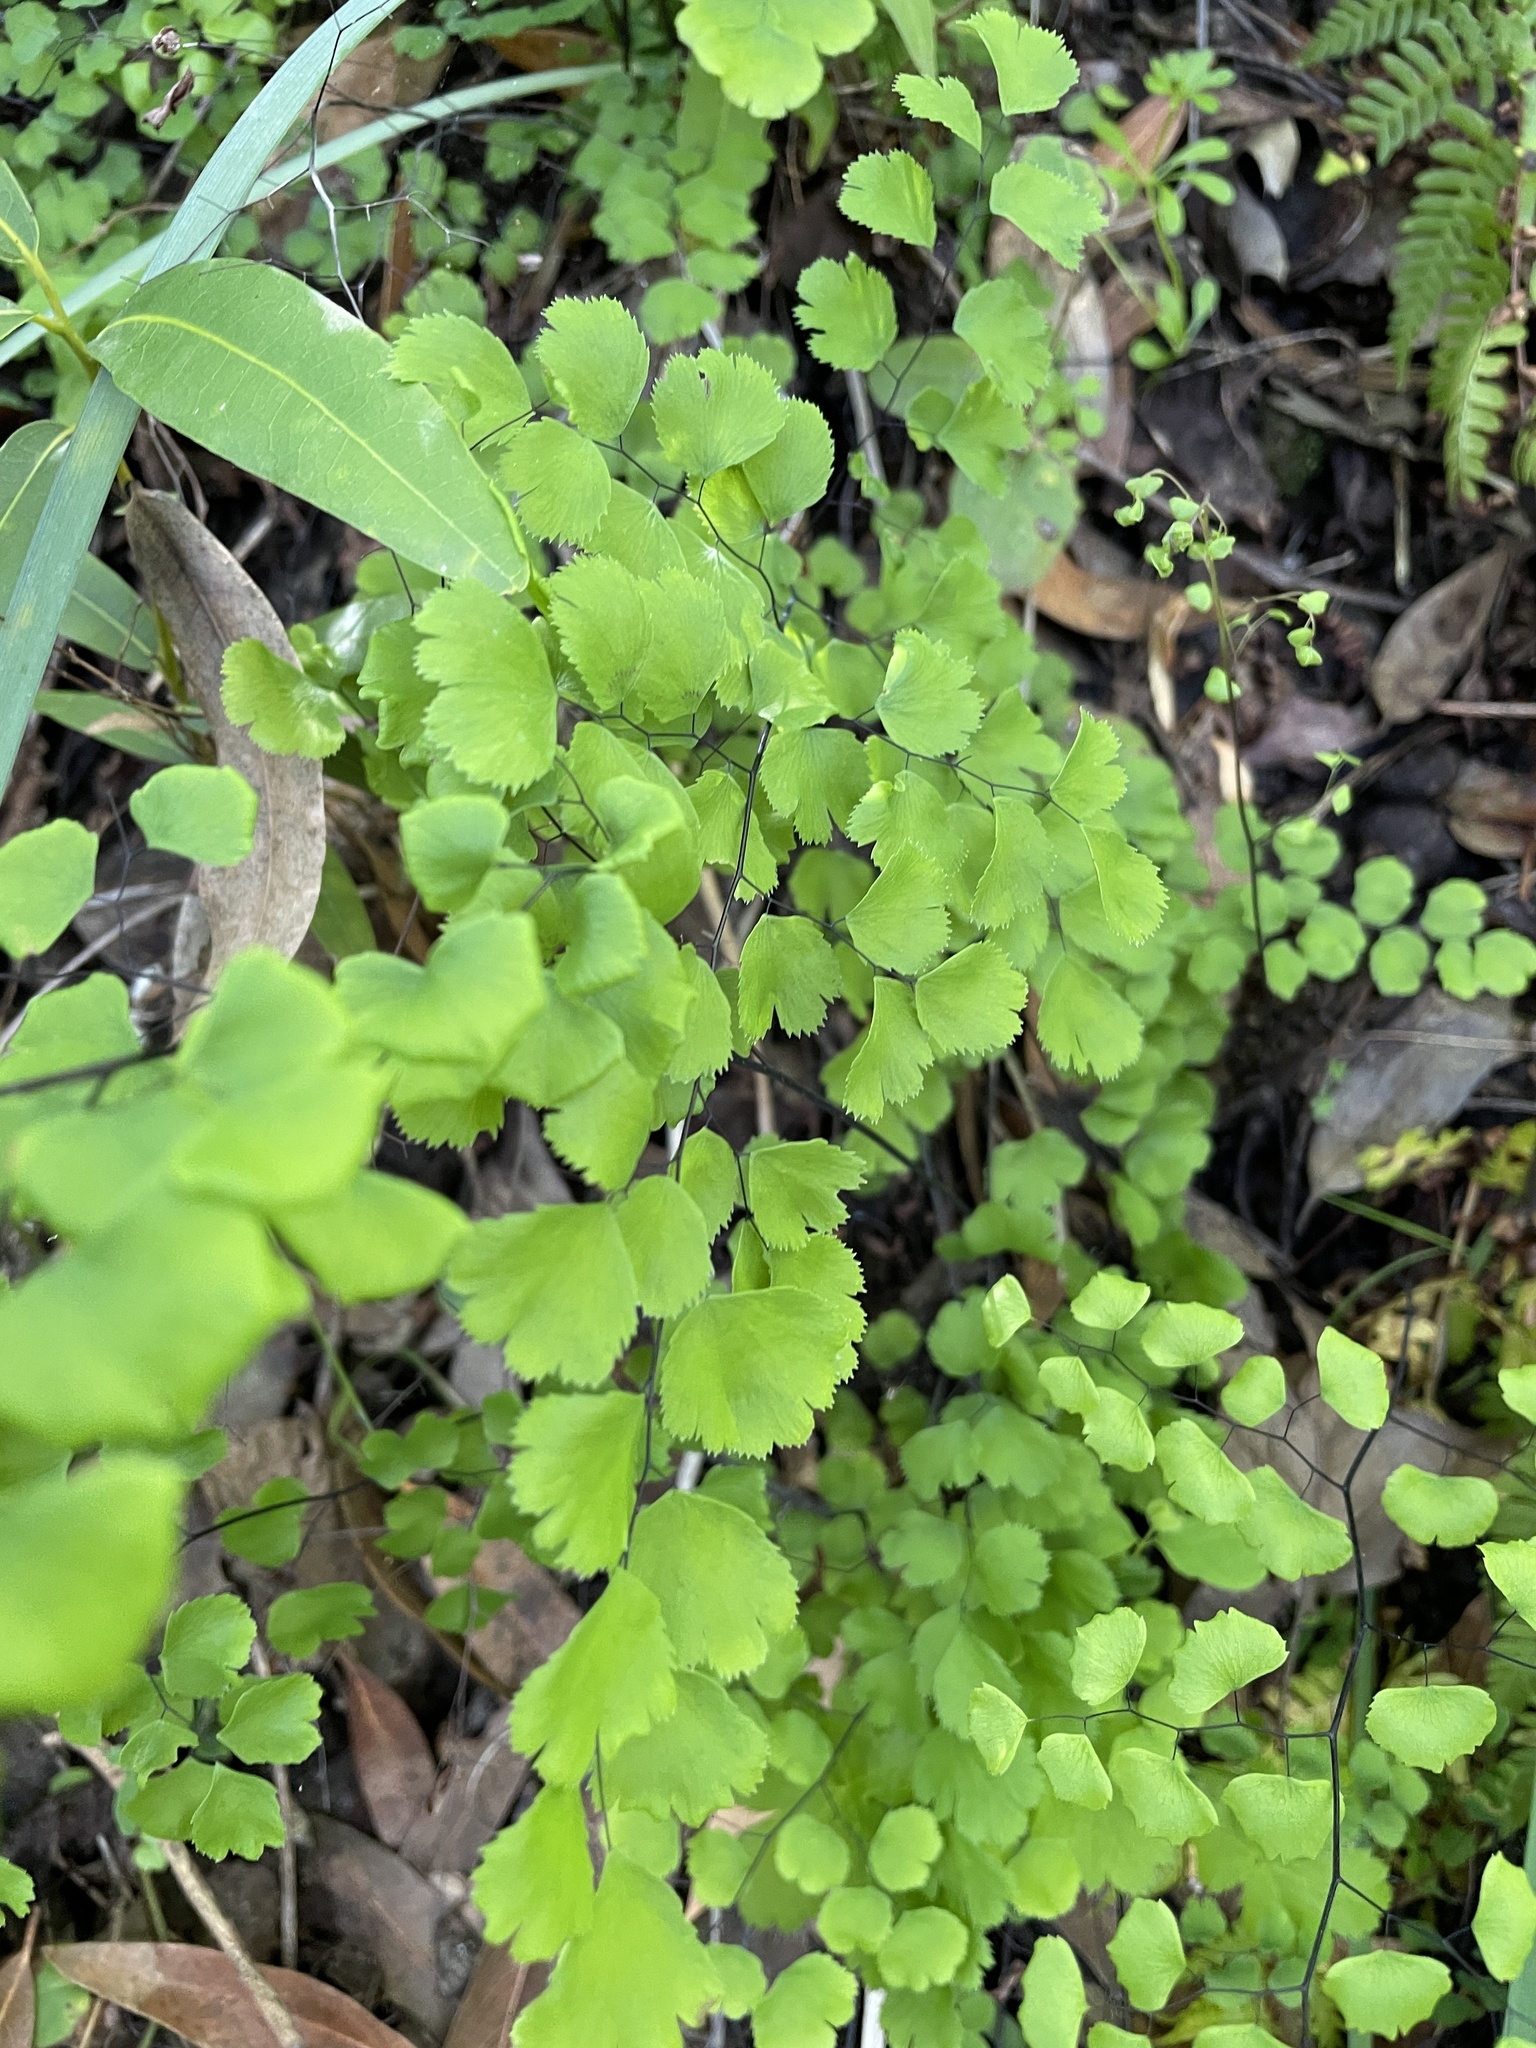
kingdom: Plantae
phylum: Tracheophyta
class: Polypodiopsida
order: Polypodiales
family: Pteridaceae
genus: Adiantum
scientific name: Adiantum jordanii
